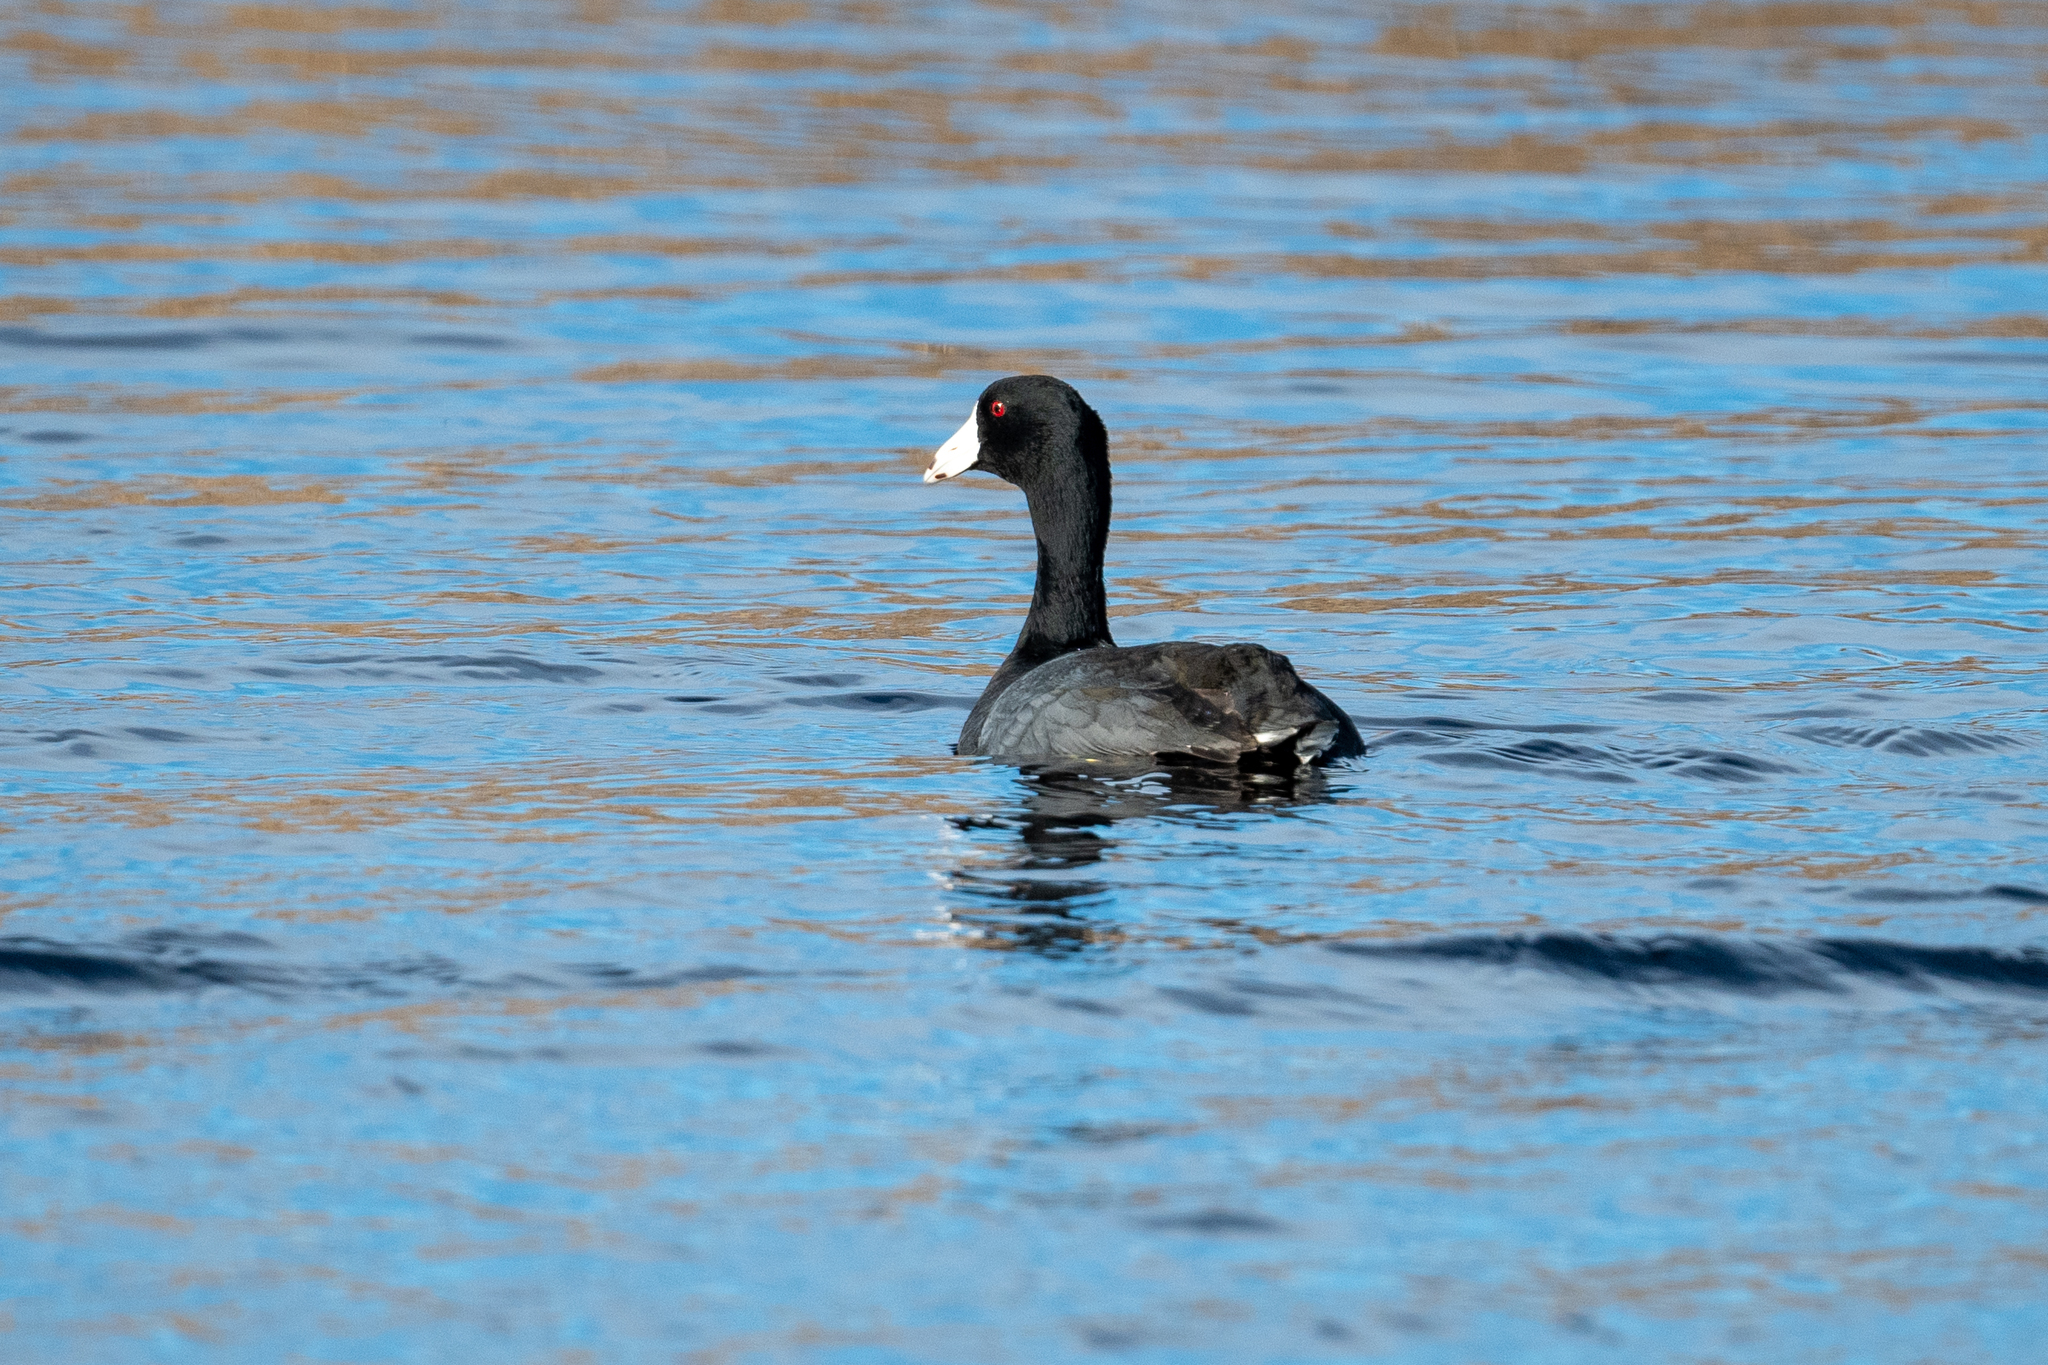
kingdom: Animalia
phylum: Chordata
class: Aves
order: Gruiformes
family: Rallidae
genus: Fulica
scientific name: Fulica americana
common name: American coot
